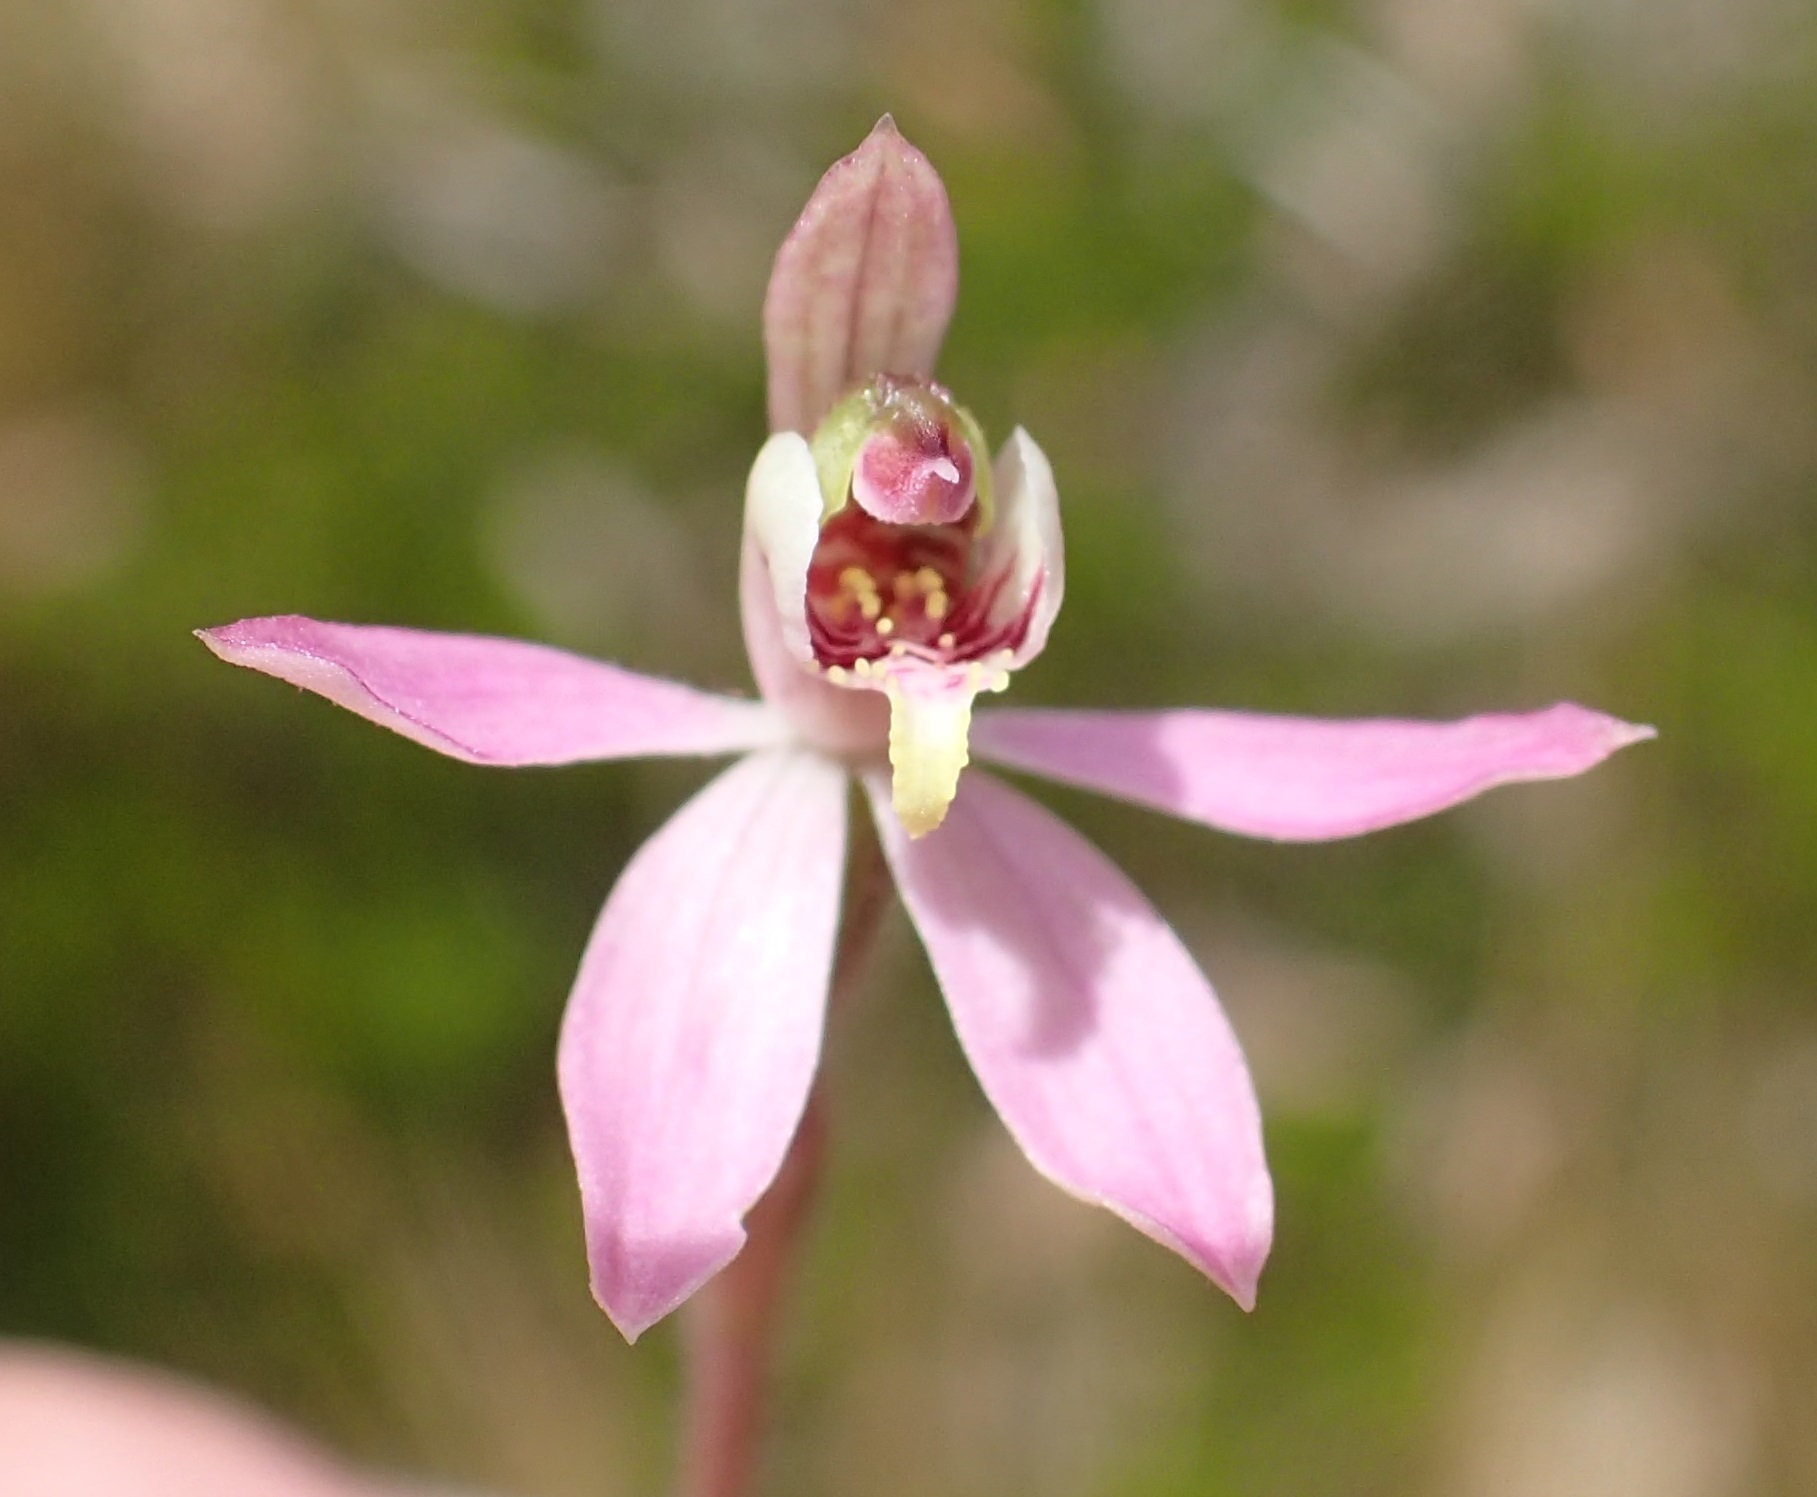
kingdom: Plantae
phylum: Tracheophyta
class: Liliopsida
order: Asparagales
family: Orchidaceae
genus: Caladenia
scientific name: Caladenia vulgaris
